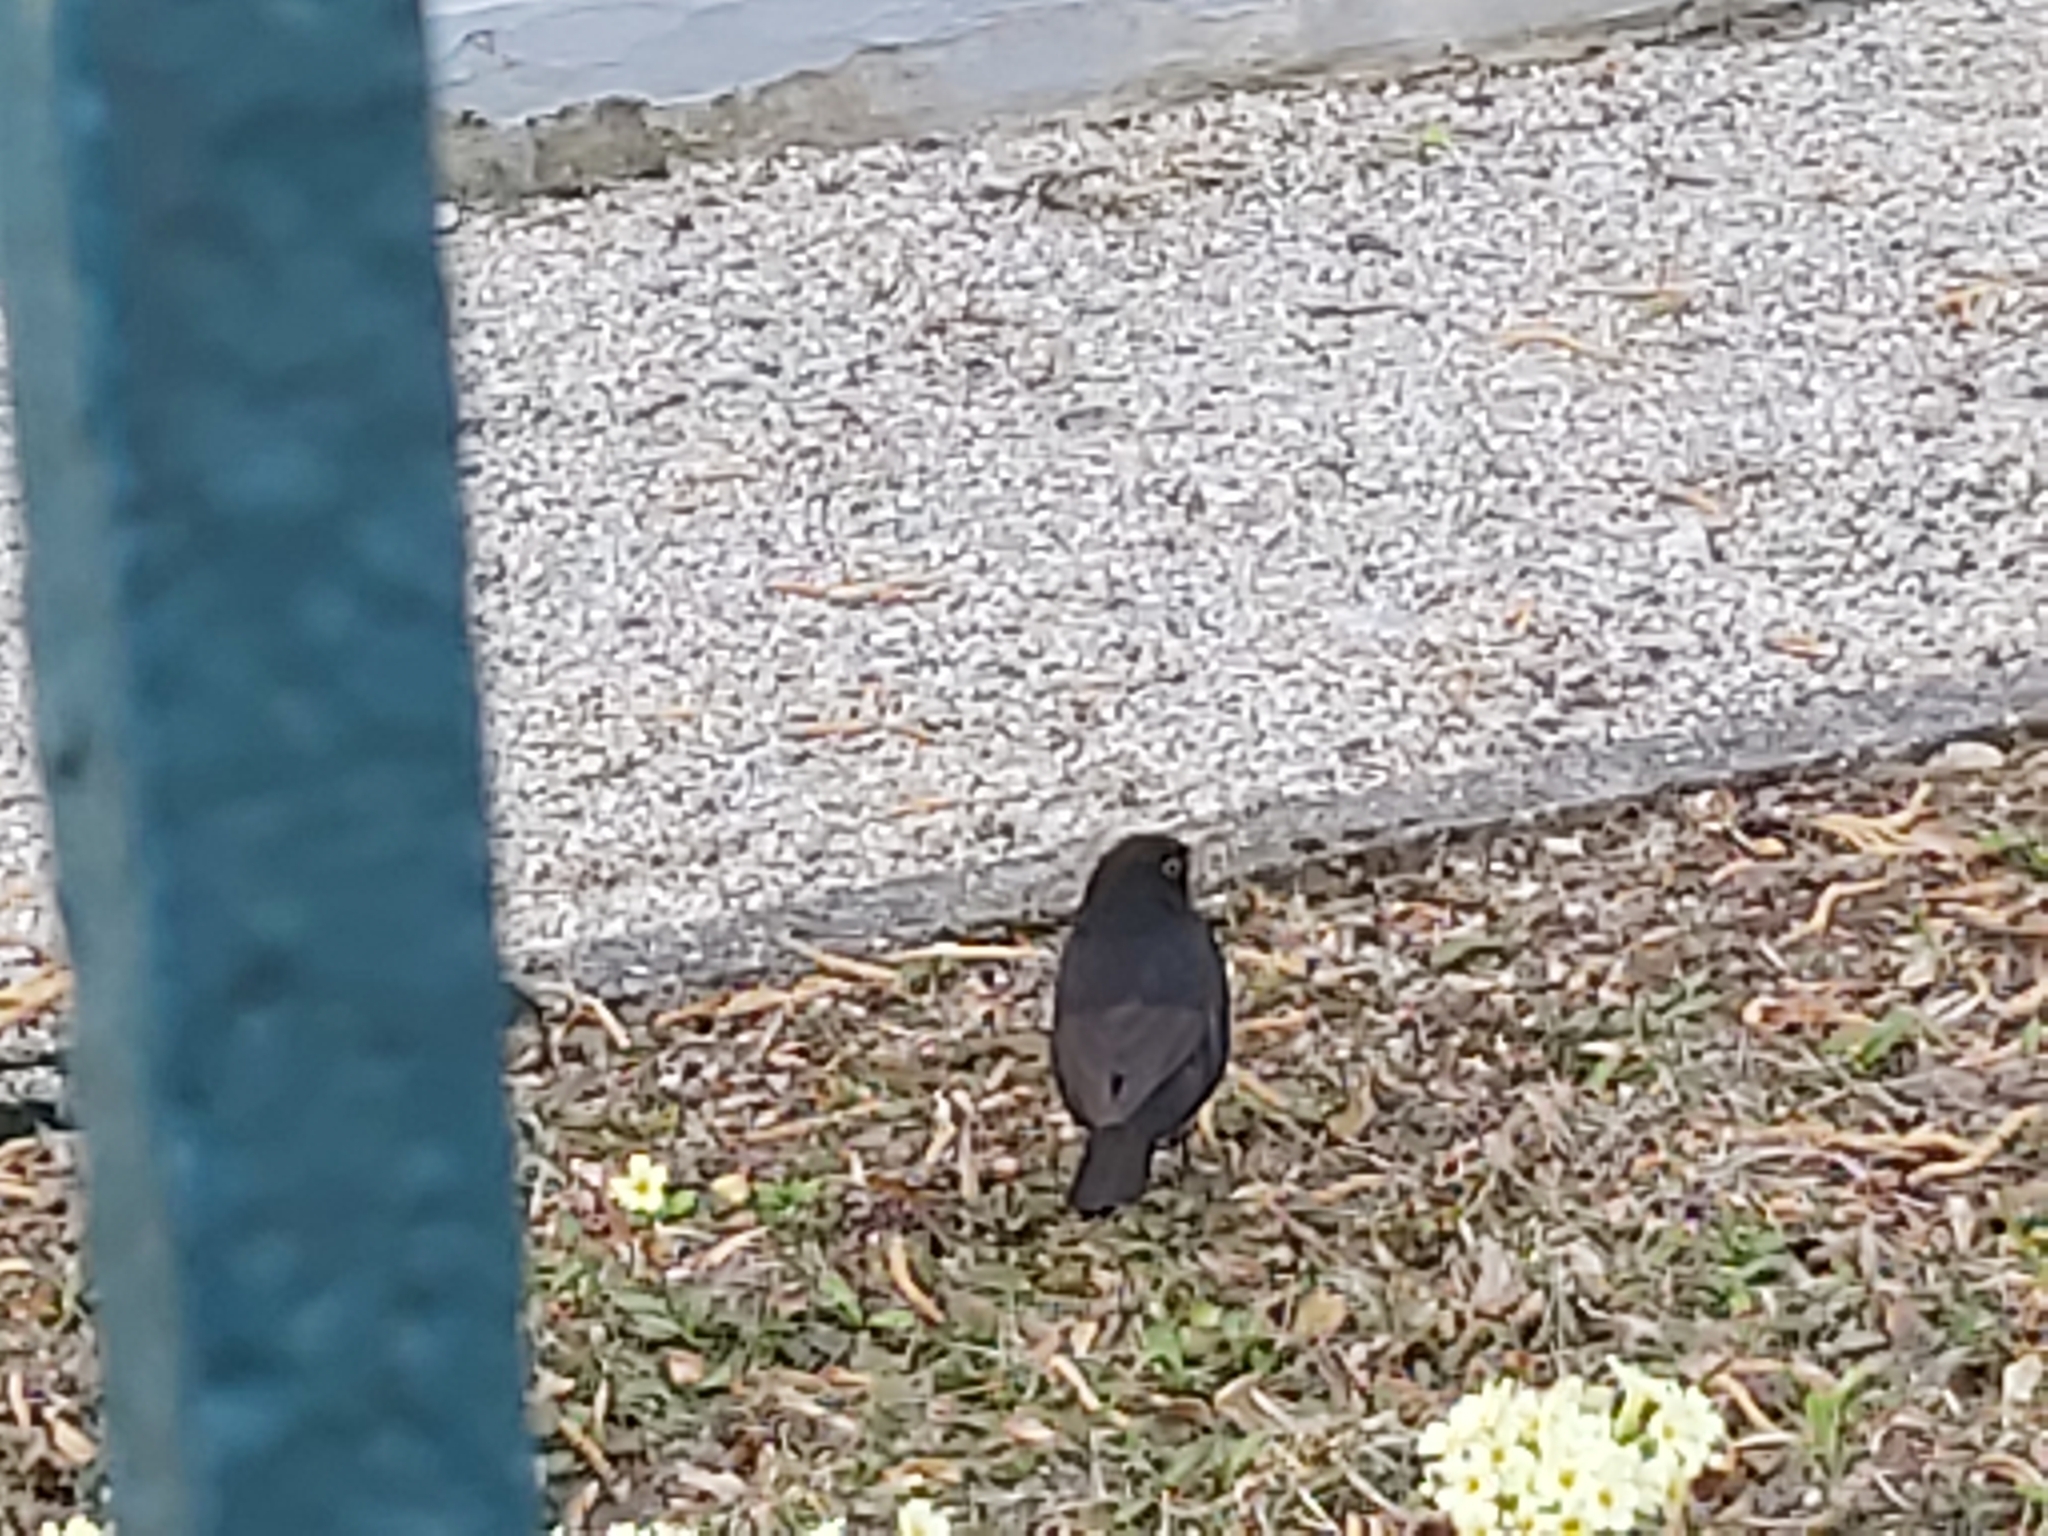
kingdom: Animalia
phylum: Chordata
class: Aves
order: Passeriformes
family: Turdidae
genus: Turdus
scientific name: Turdus merula
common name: Common blackbird
